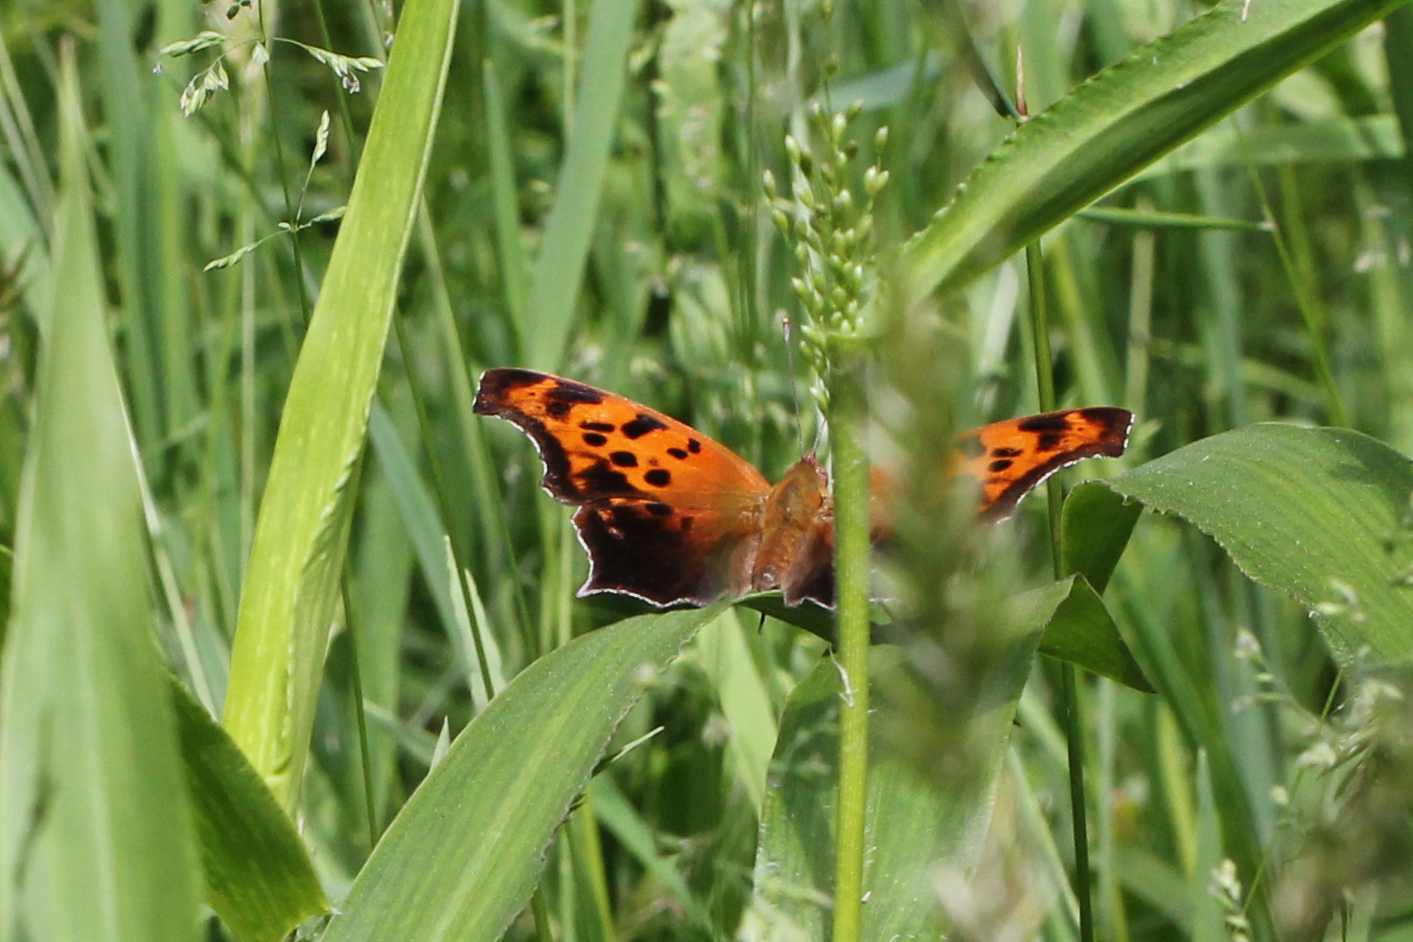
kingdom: Animalia
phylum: Arthropoda
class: Insecta
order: Lepidoptera
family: Nymphalidae
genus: Polygonia
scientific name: Polygonia interrogationis
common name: Question mark
